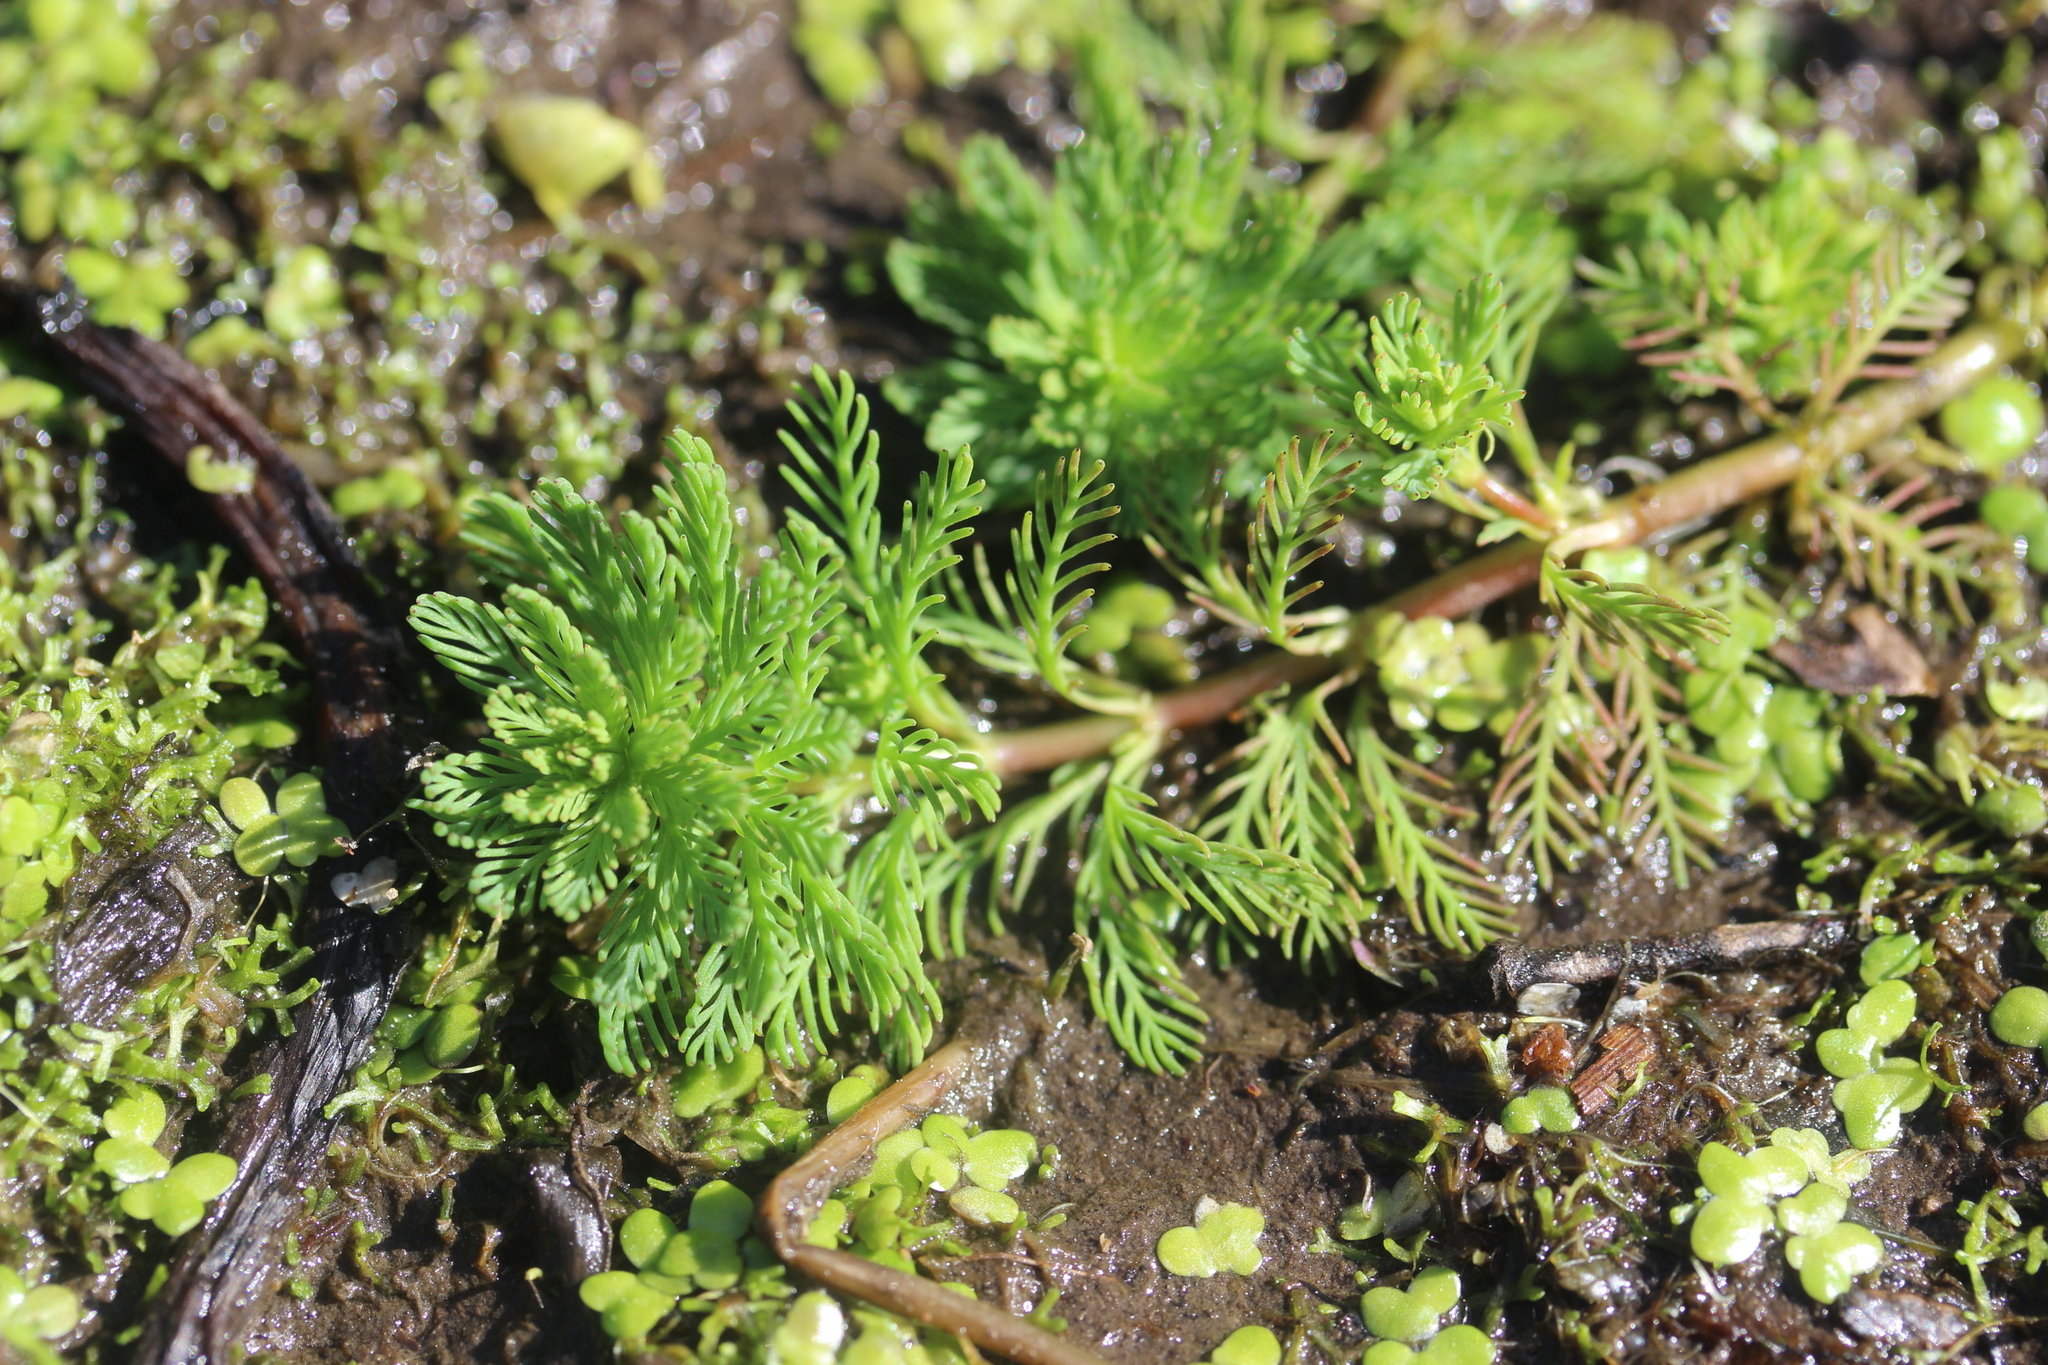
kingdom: Plantae
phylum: Tracheophyta
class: Magnoliopsida
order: Saxifragales
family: Haloragaceae
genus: Myriophyllum
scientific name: Myriophyllum aquaticum
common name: Parrot's feather
